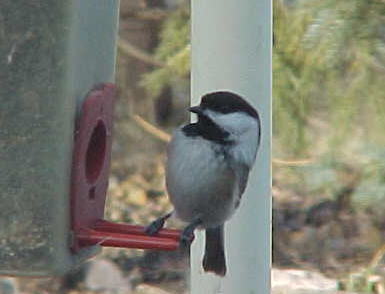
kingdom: Animalia
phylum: Chordata
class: Aves
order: Passeriformes
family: Paridae
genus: Poecile
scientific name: Poecile atricapillus
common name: Black-capped chickadee
